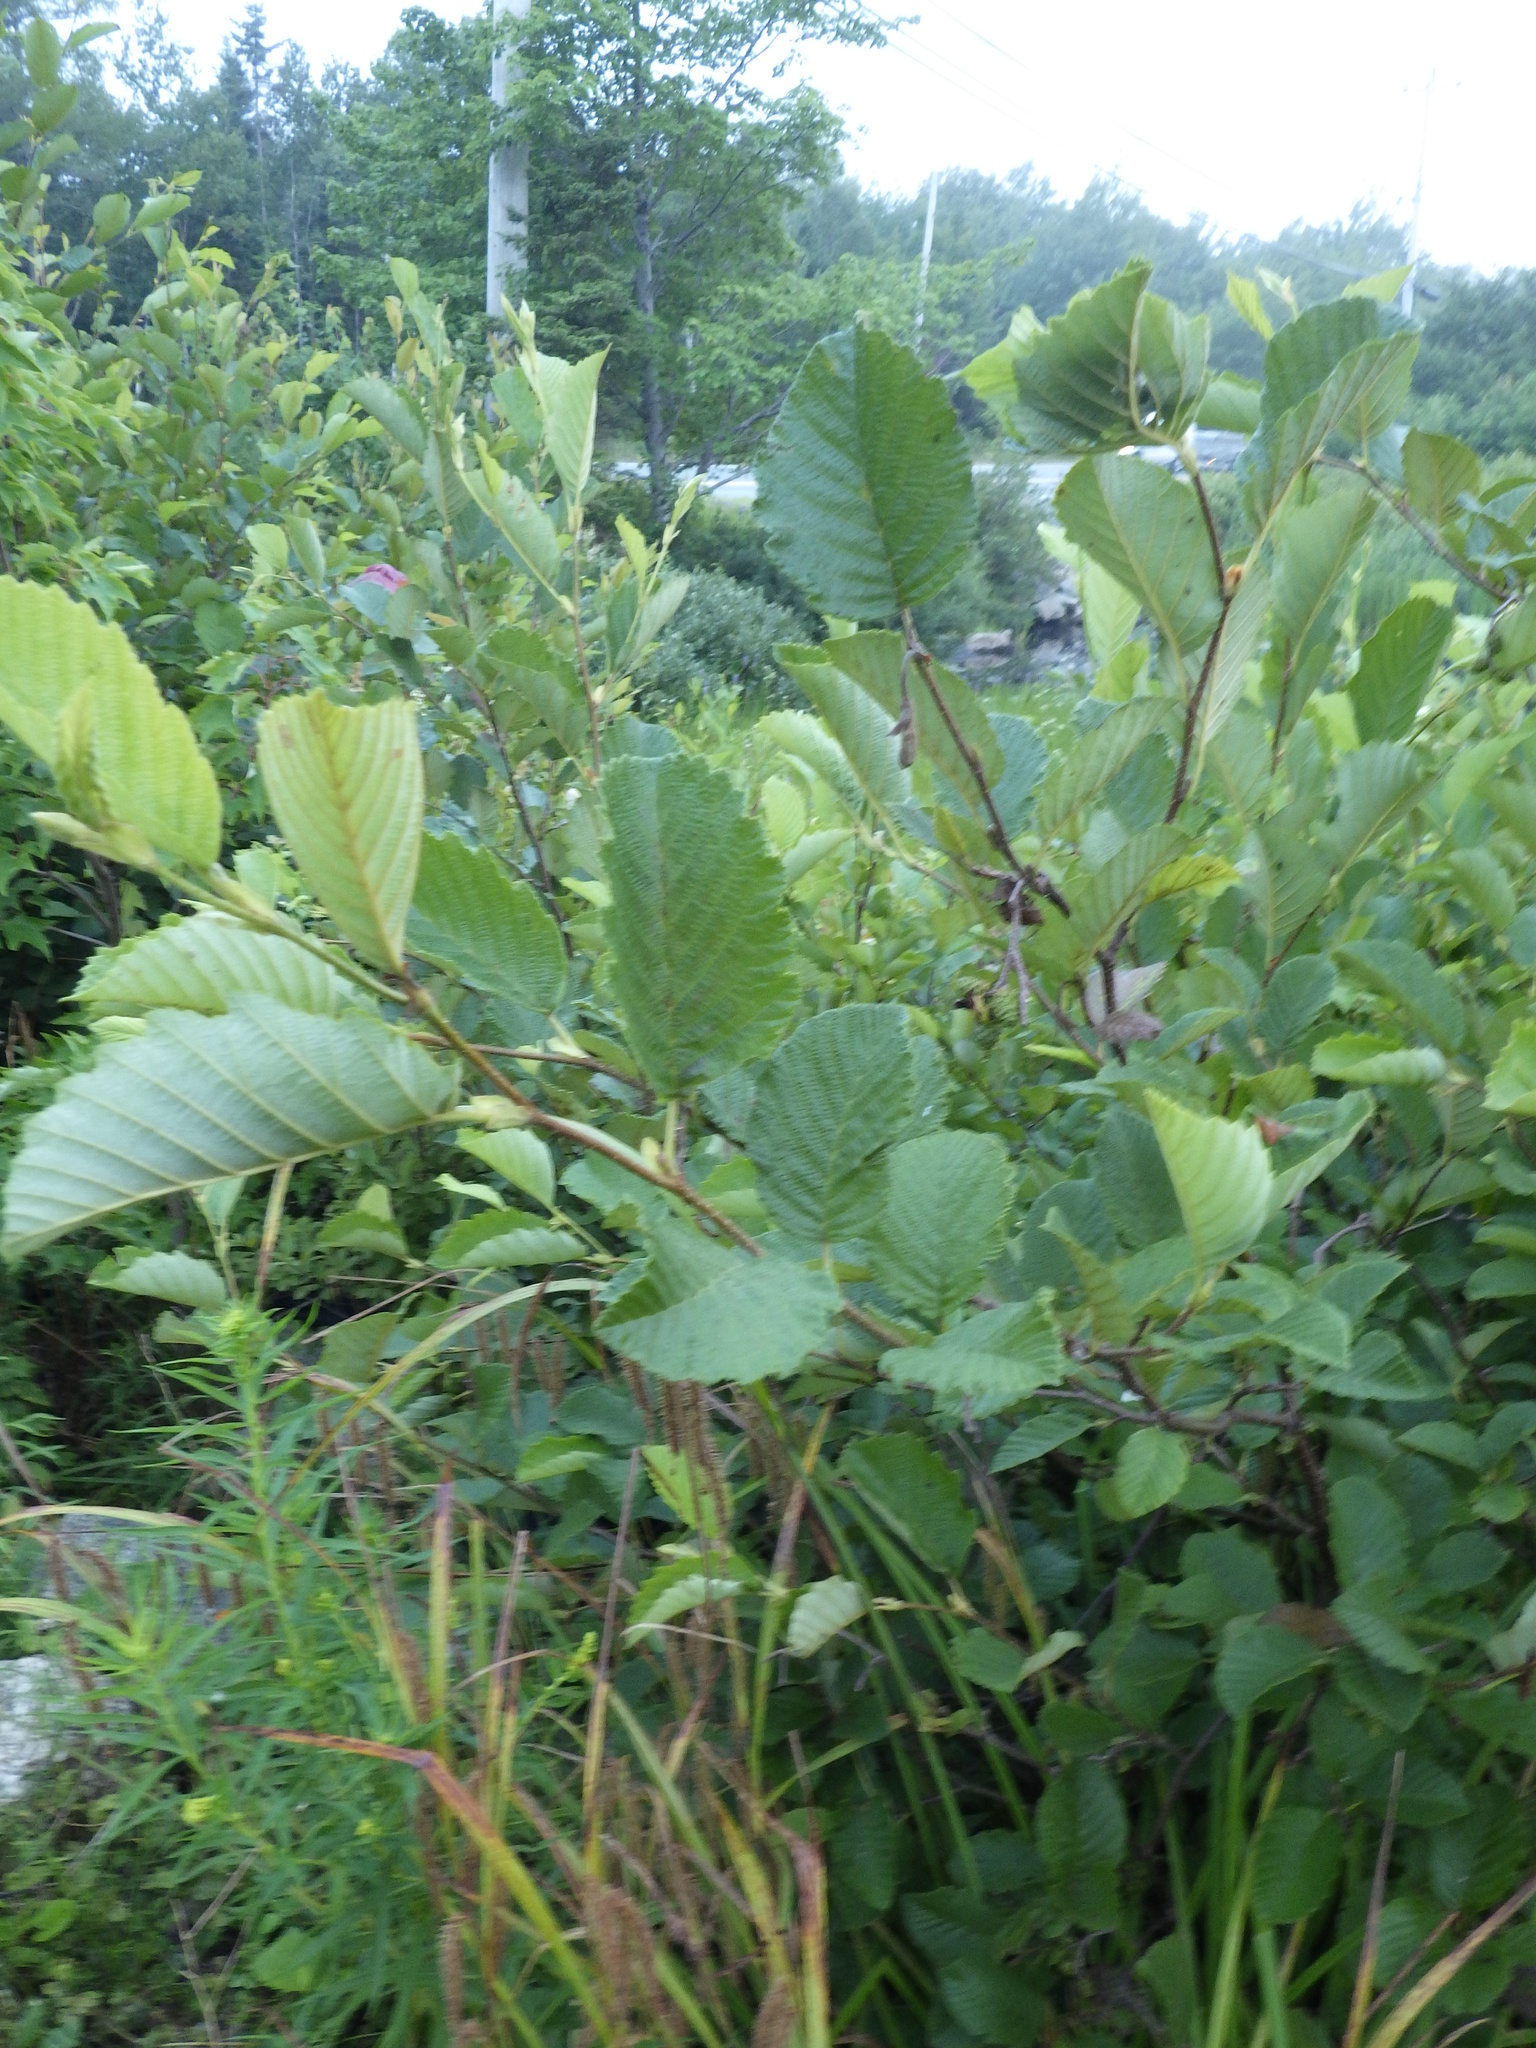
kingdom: Plantae
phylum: Tracheophyta
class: Magnoliopsida
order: Fagales
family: Betulaceae
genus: Alnus
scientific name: Alnus incana
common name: Grey alder
